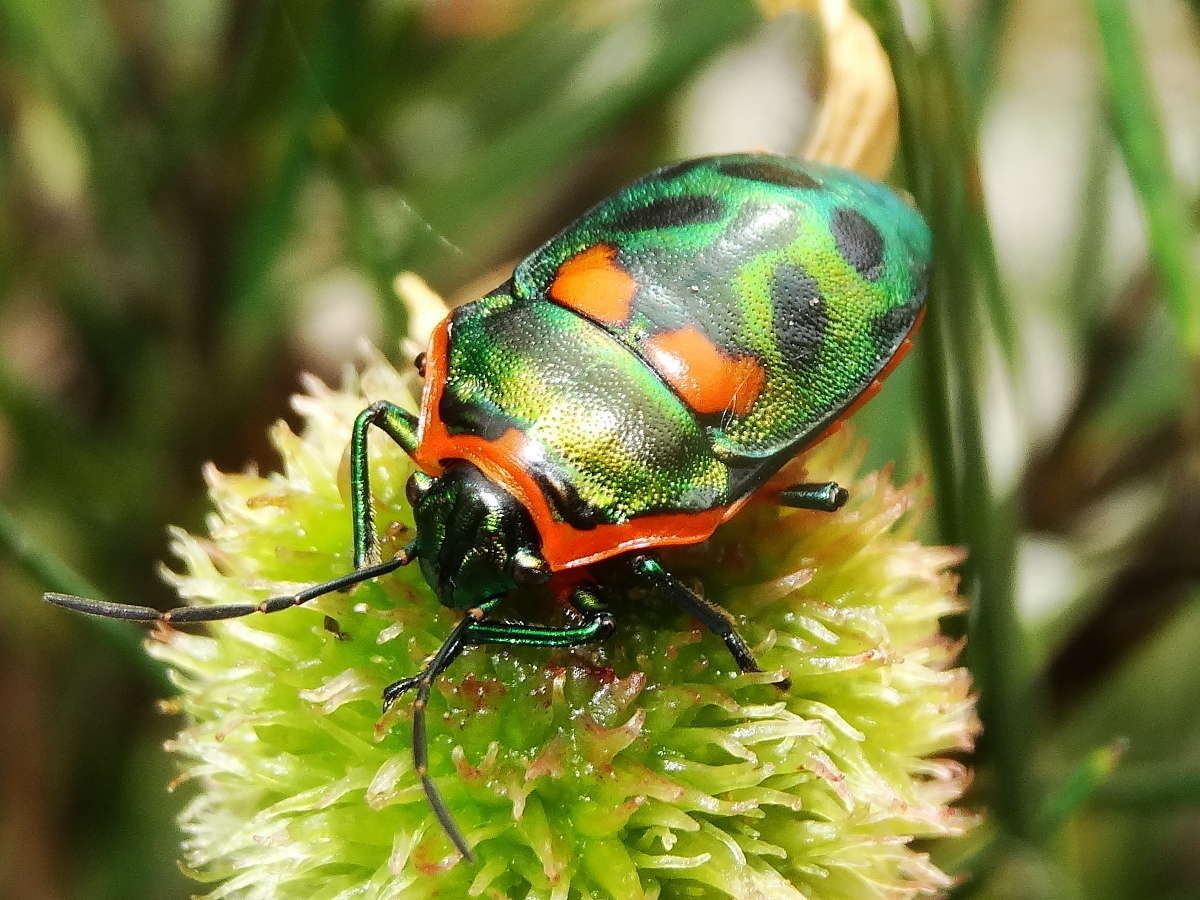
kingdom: Animalia
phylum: Arthropoda
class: Insecta
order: Hemiptera
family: Scutelleridae
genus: Scutiphora
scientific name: Scutiphora pedicellata
